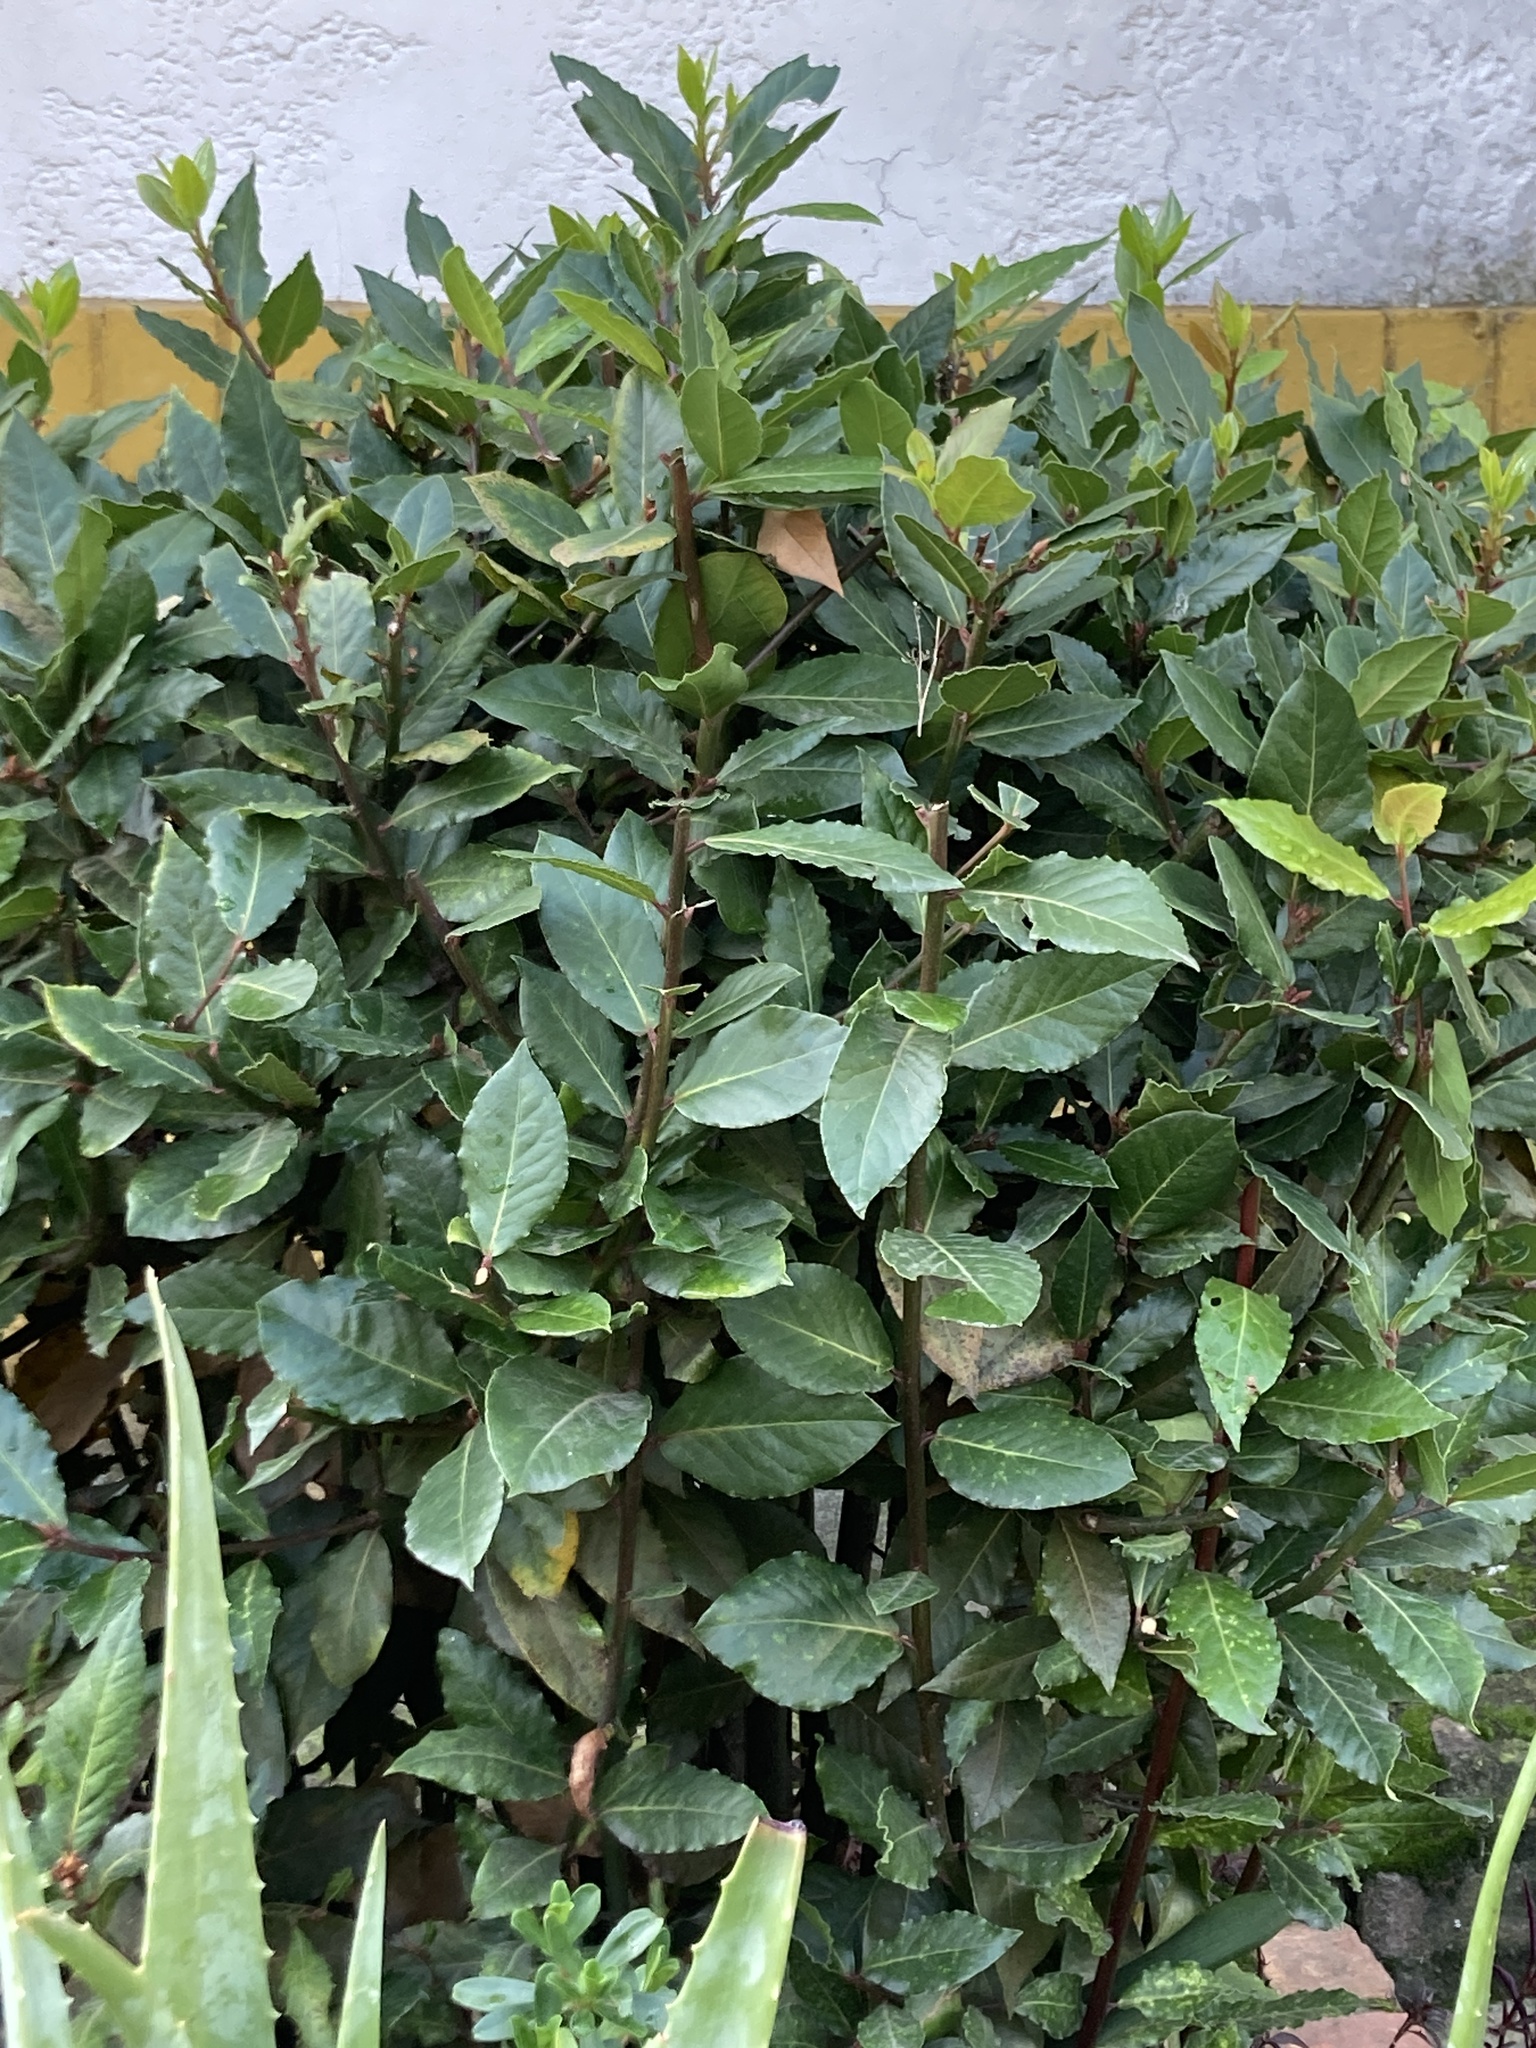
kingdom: Plantae
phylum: Tracheophyta
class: Magnoliopsida
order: Laurales
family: Lauraceae
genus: Laurus
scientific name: Laurus nobilis
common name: Bay
